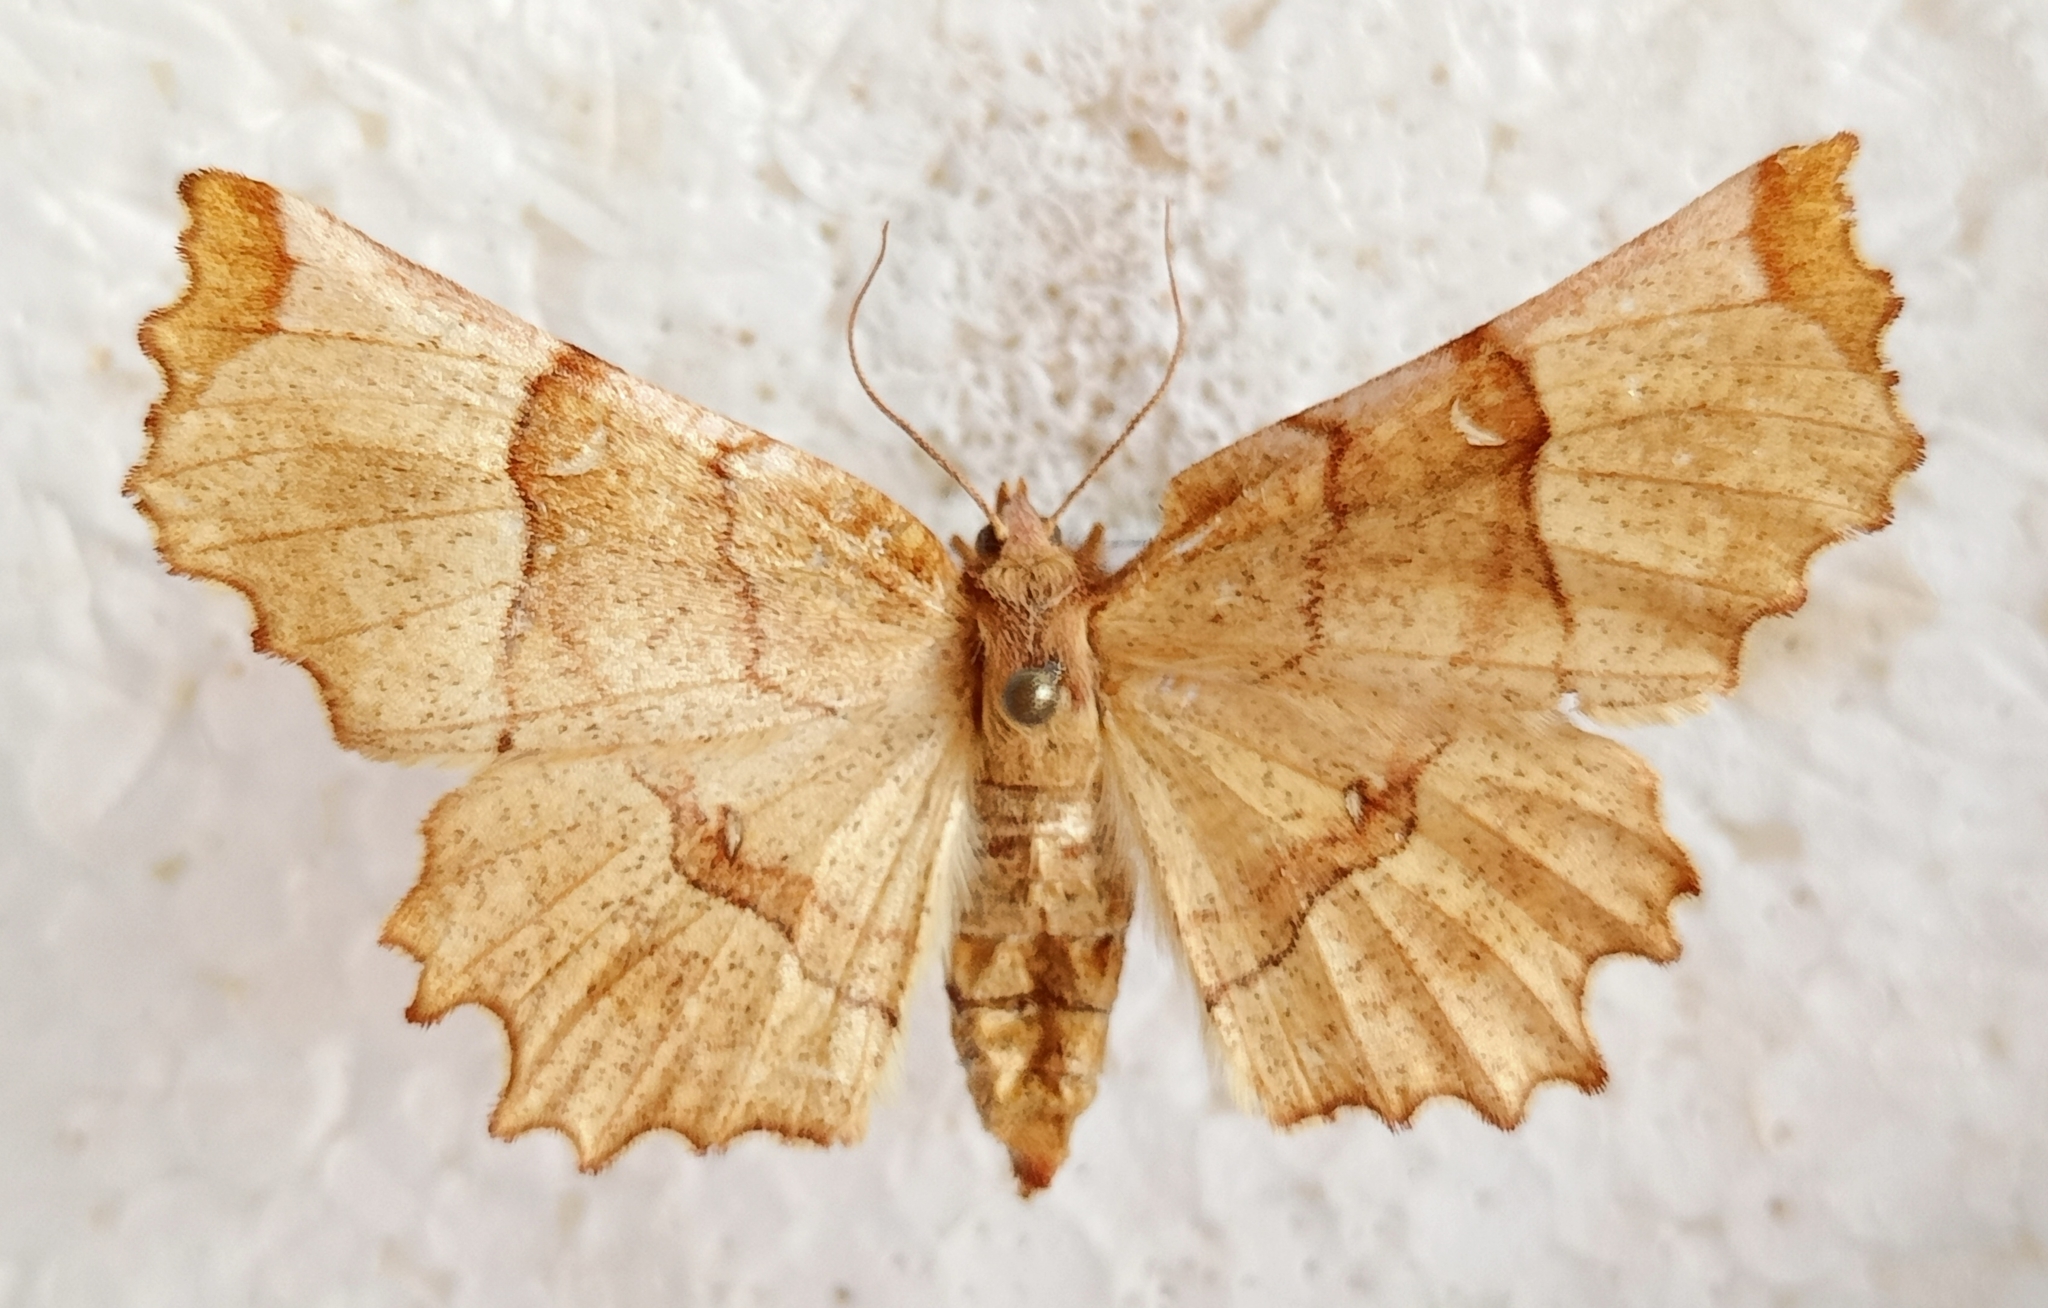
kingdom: Animalia
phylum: Arthropoda
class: Insecta
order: Lepidoptera
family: Geometridae
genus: Selenia
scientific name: Selenia lunularia
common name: Lunar thorn
